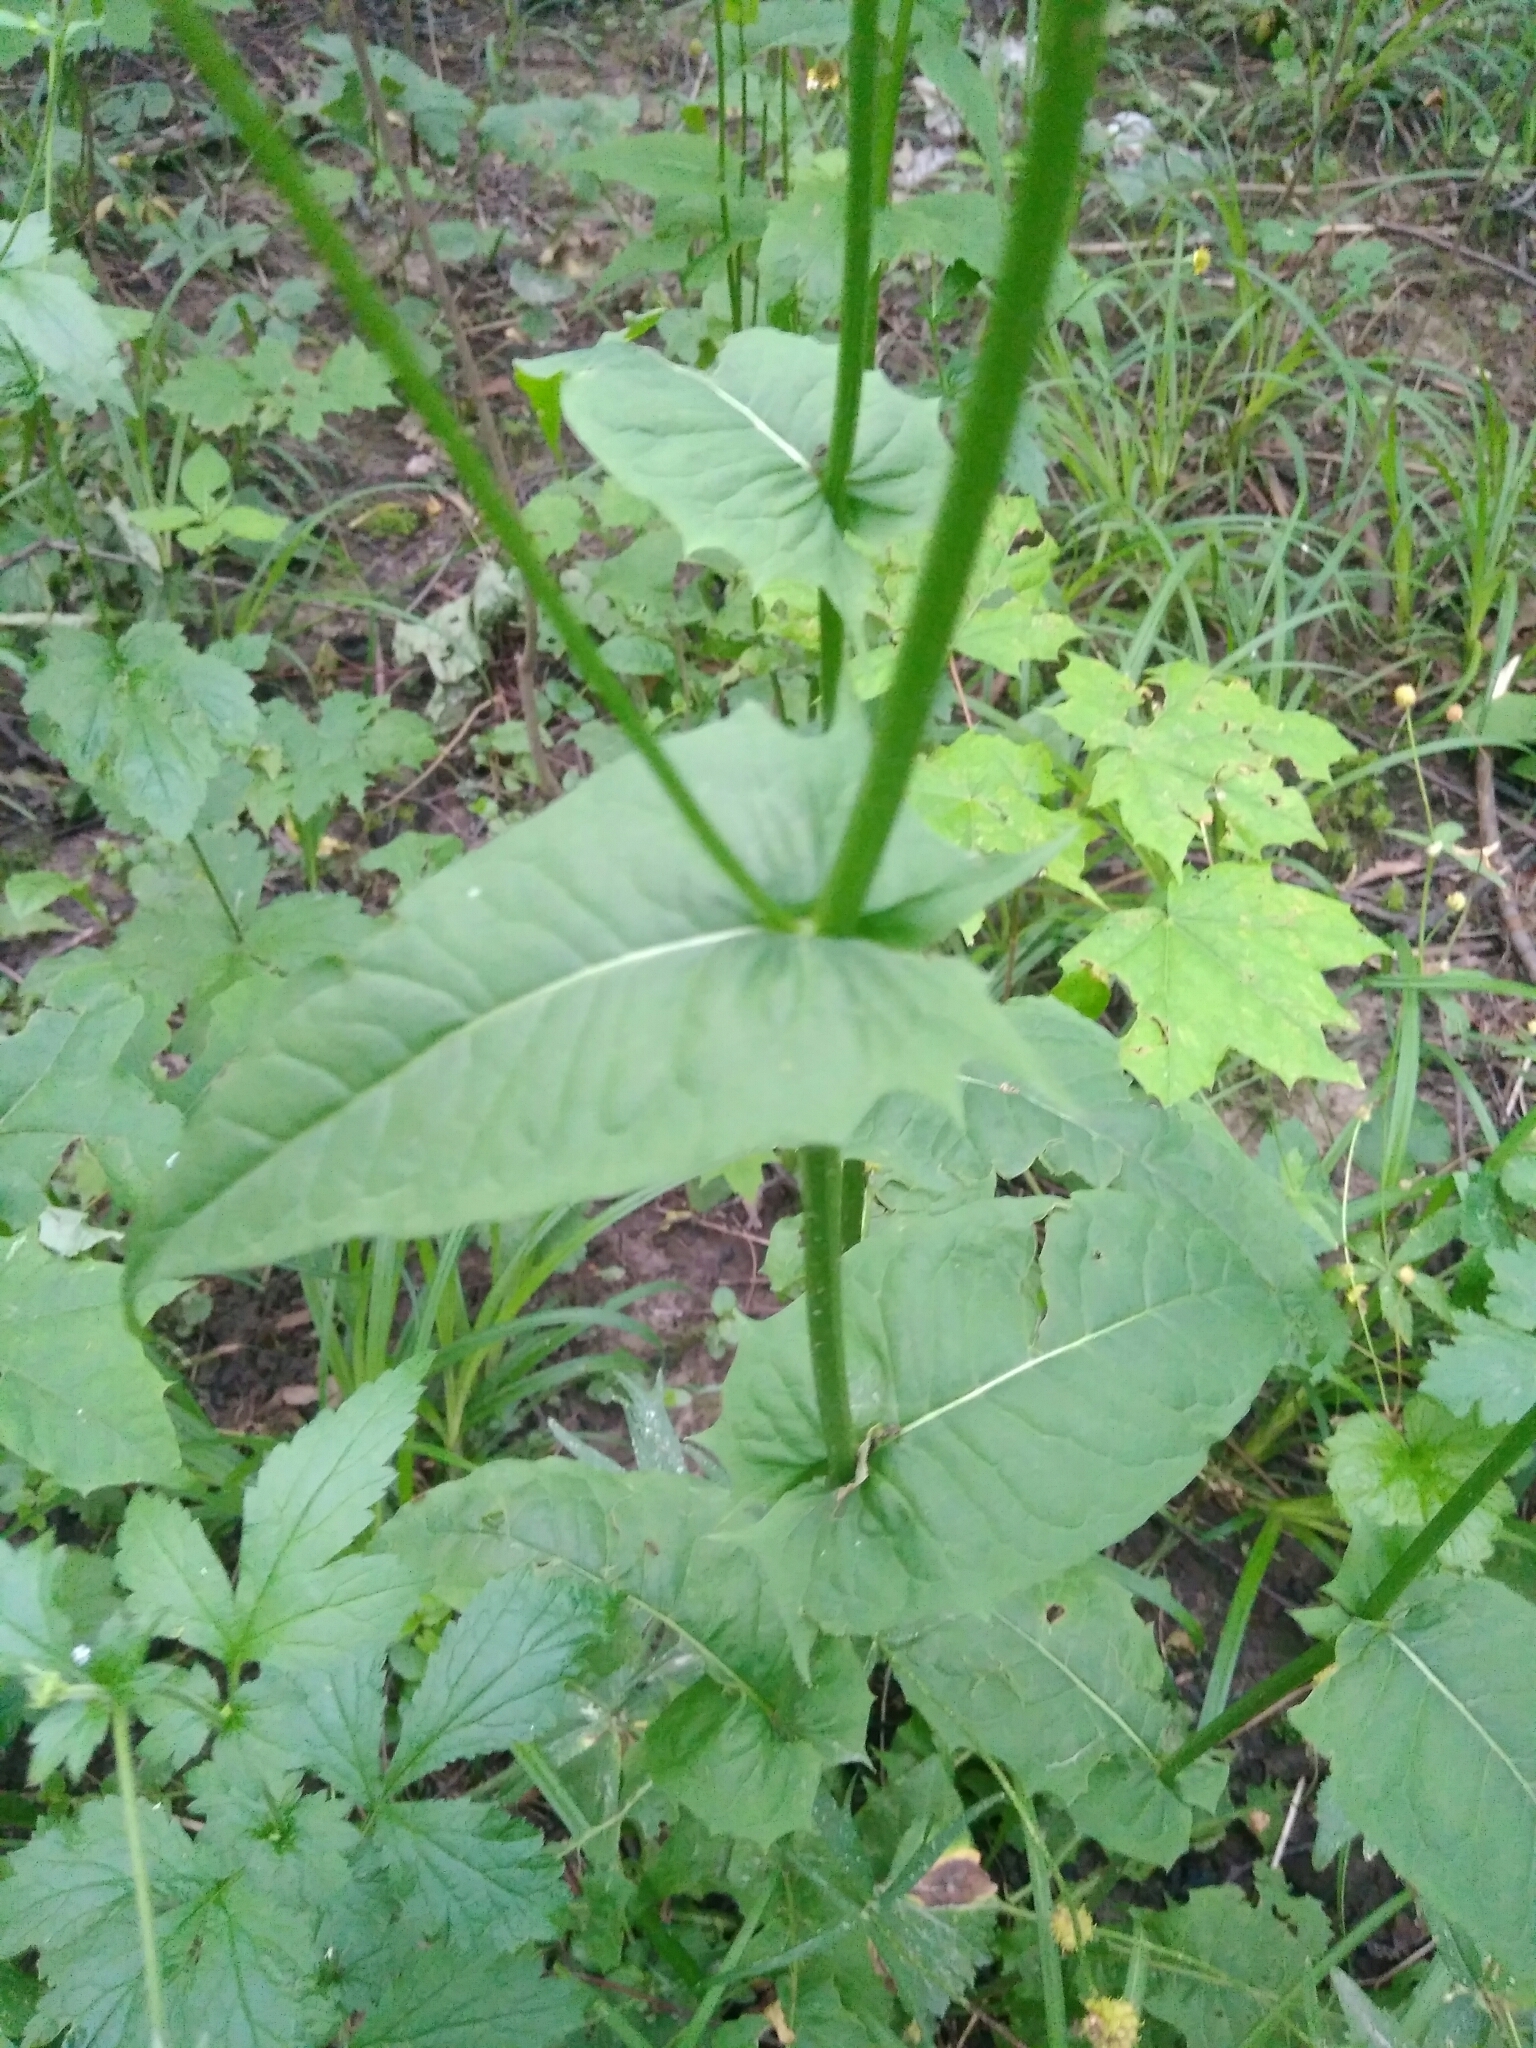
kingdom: Plantae
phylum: Tracheophyta
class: Magnoliopsida
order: Asterales
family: Asteraceae
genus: Crepis
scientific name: Crepis paludosa
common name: Marsh hawk's-beard
